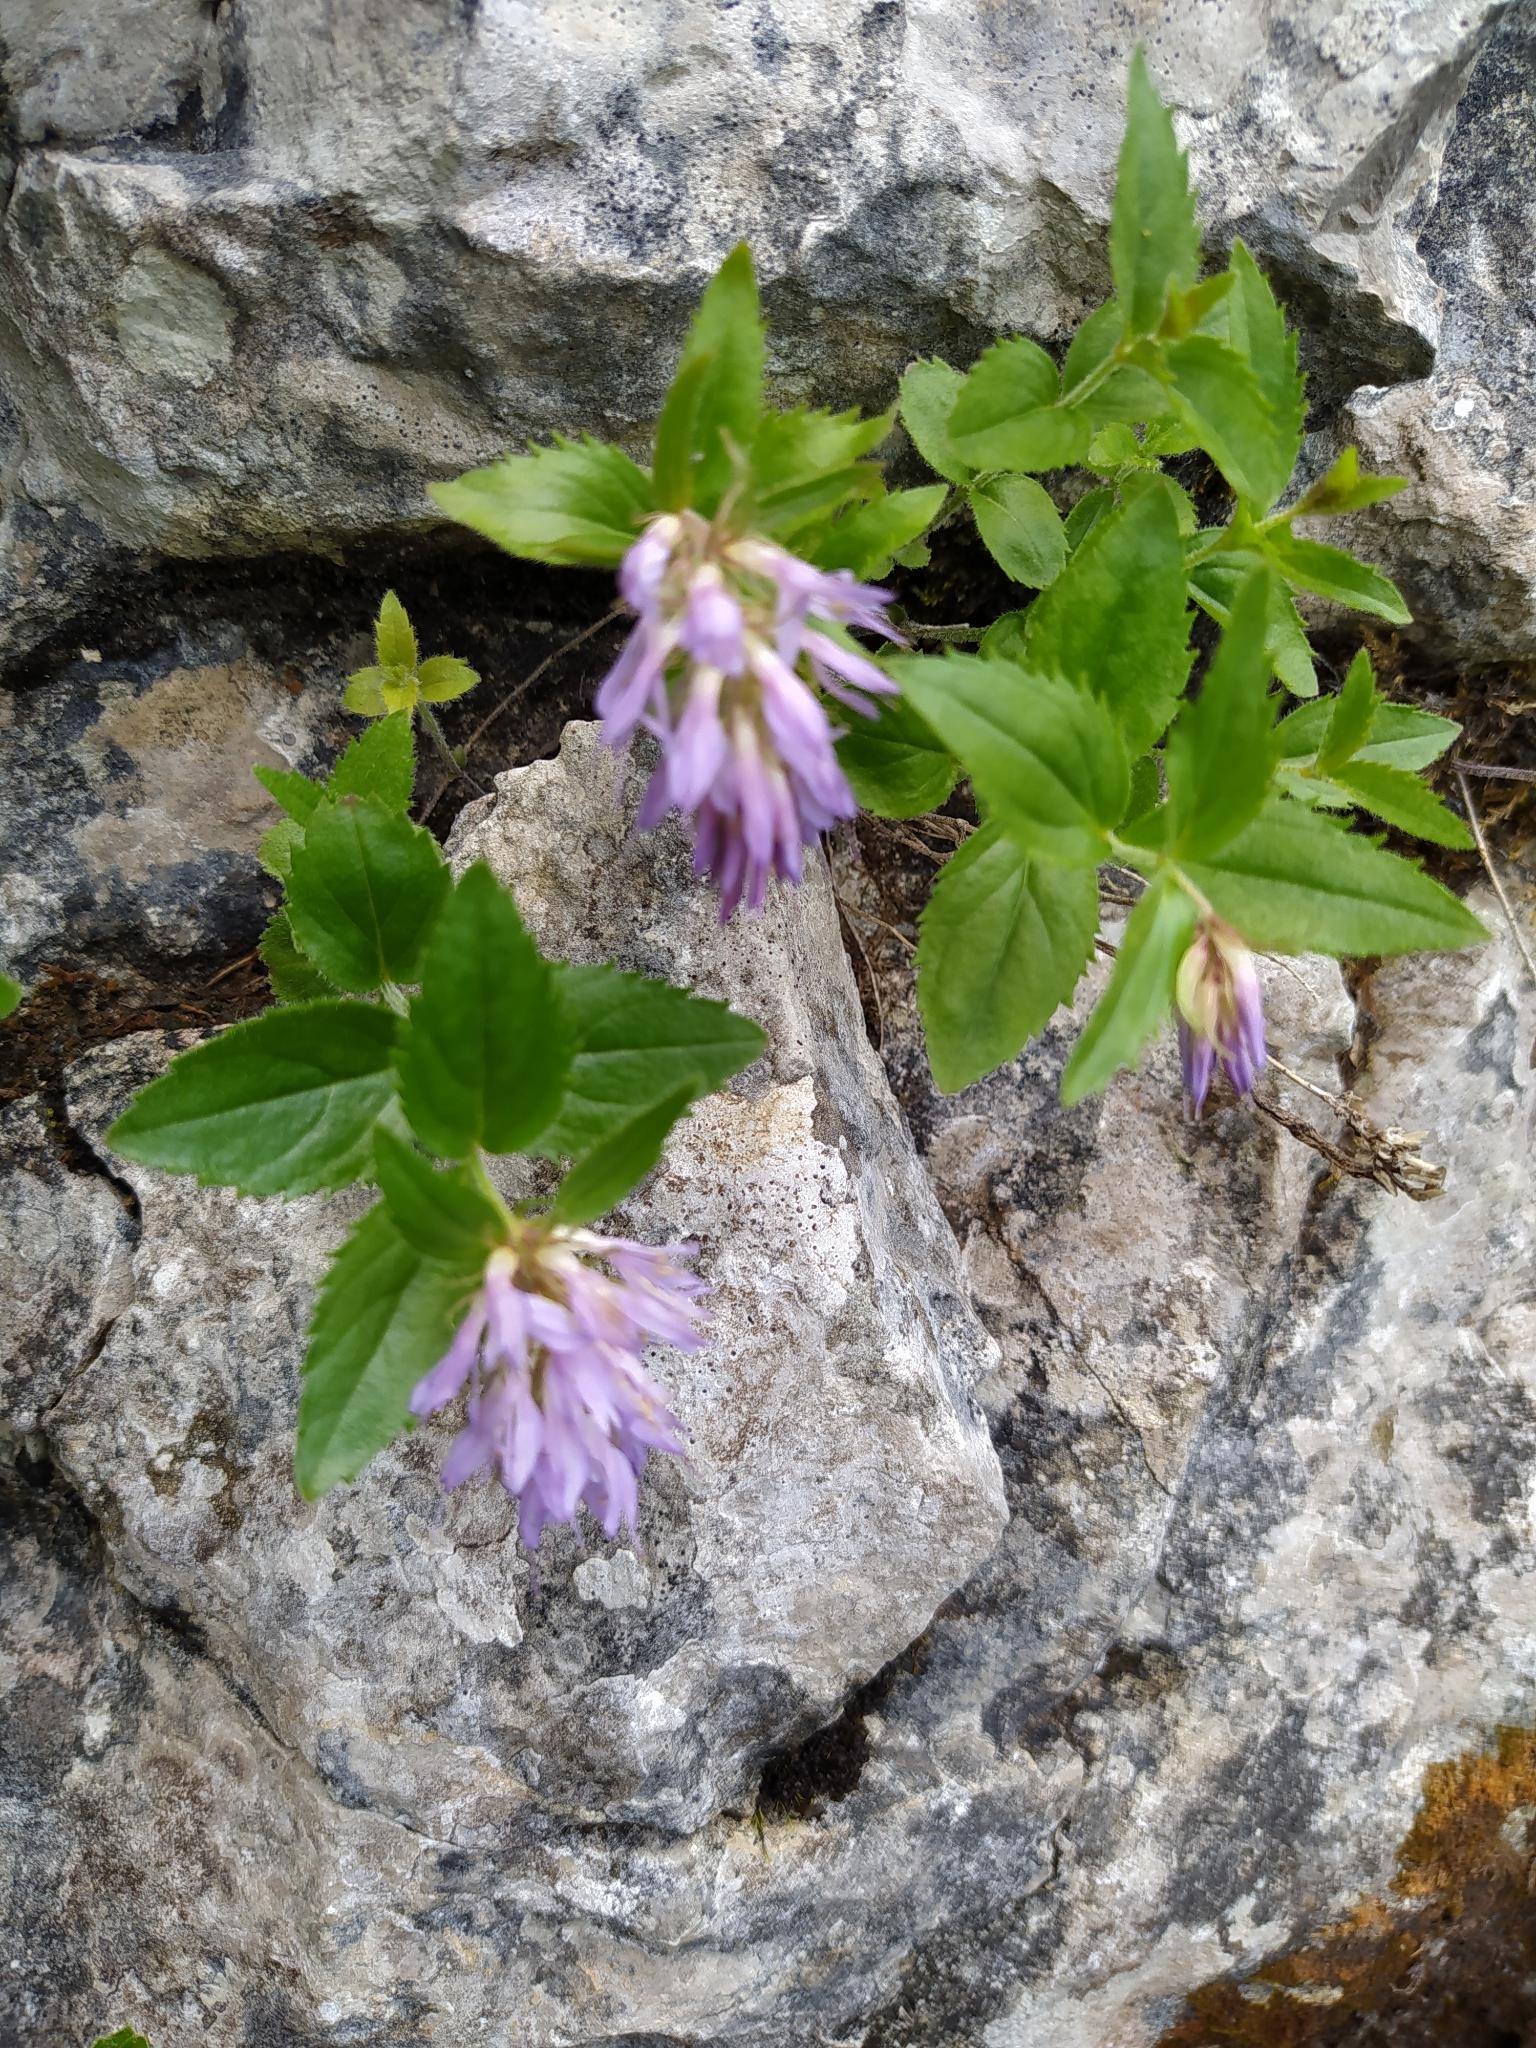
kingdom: Plantae
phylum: Tracheophyta
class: Magnoliopsida
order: Lamiales
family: Plantaginaceae
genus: Paederota
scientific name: Paederota
